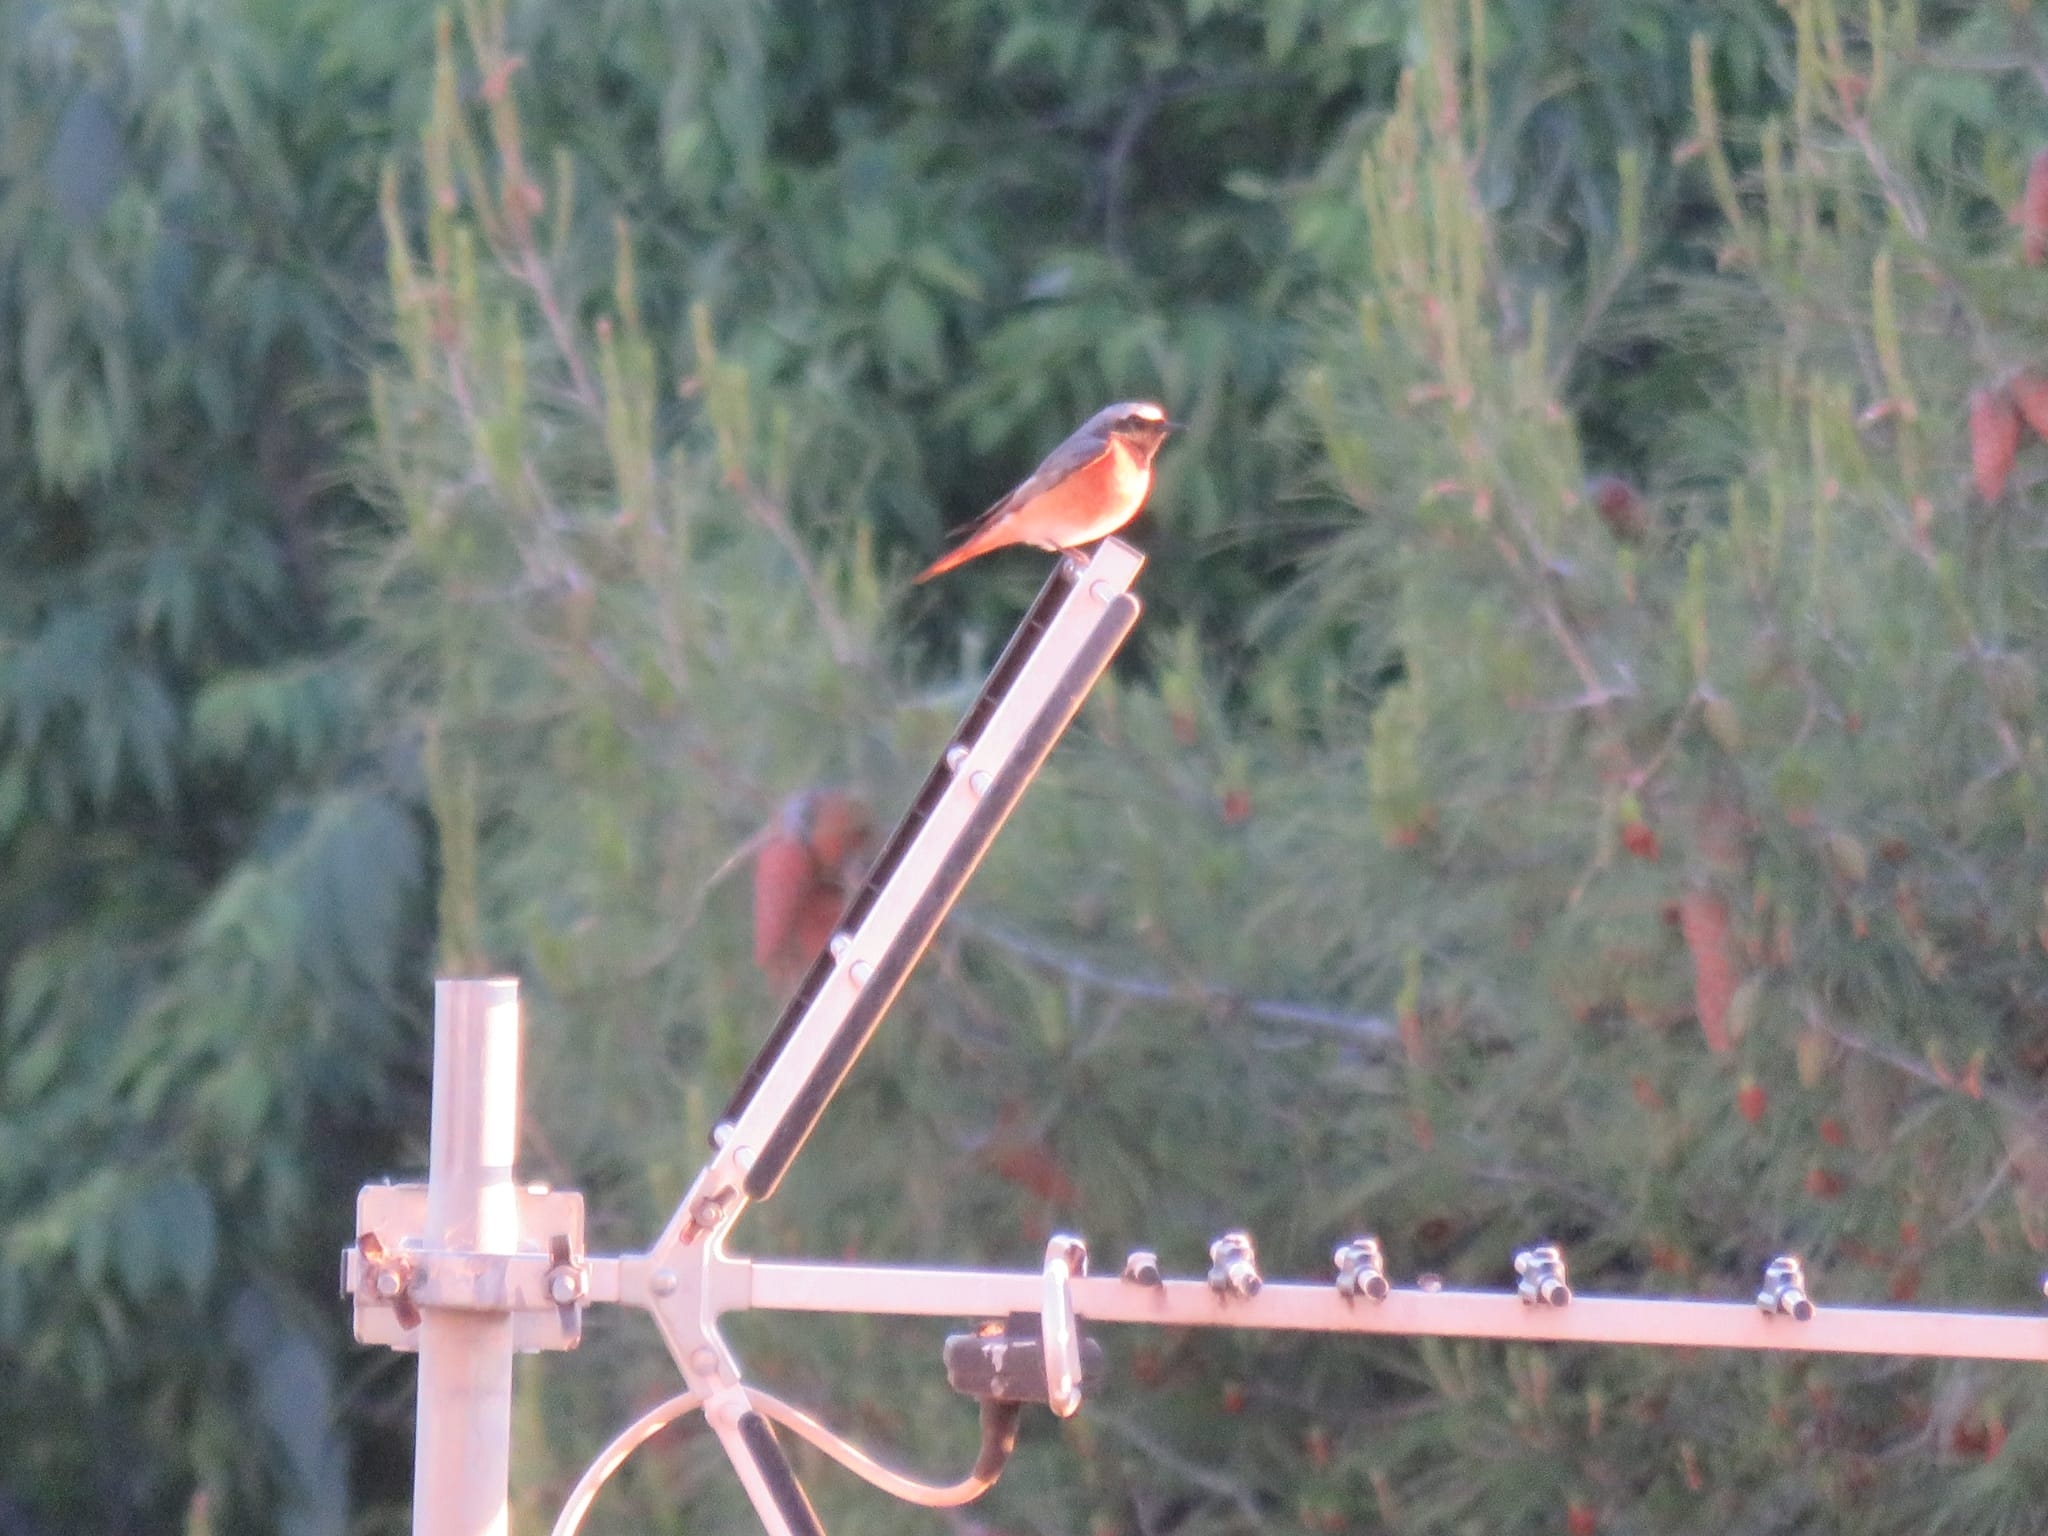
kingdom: Animalia
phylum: Chordata
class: Aves
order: Passeriformes
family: Muscicapidae
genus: Phoenicurus
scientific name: Phoenicurus phoenicurus
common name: Common redstart
